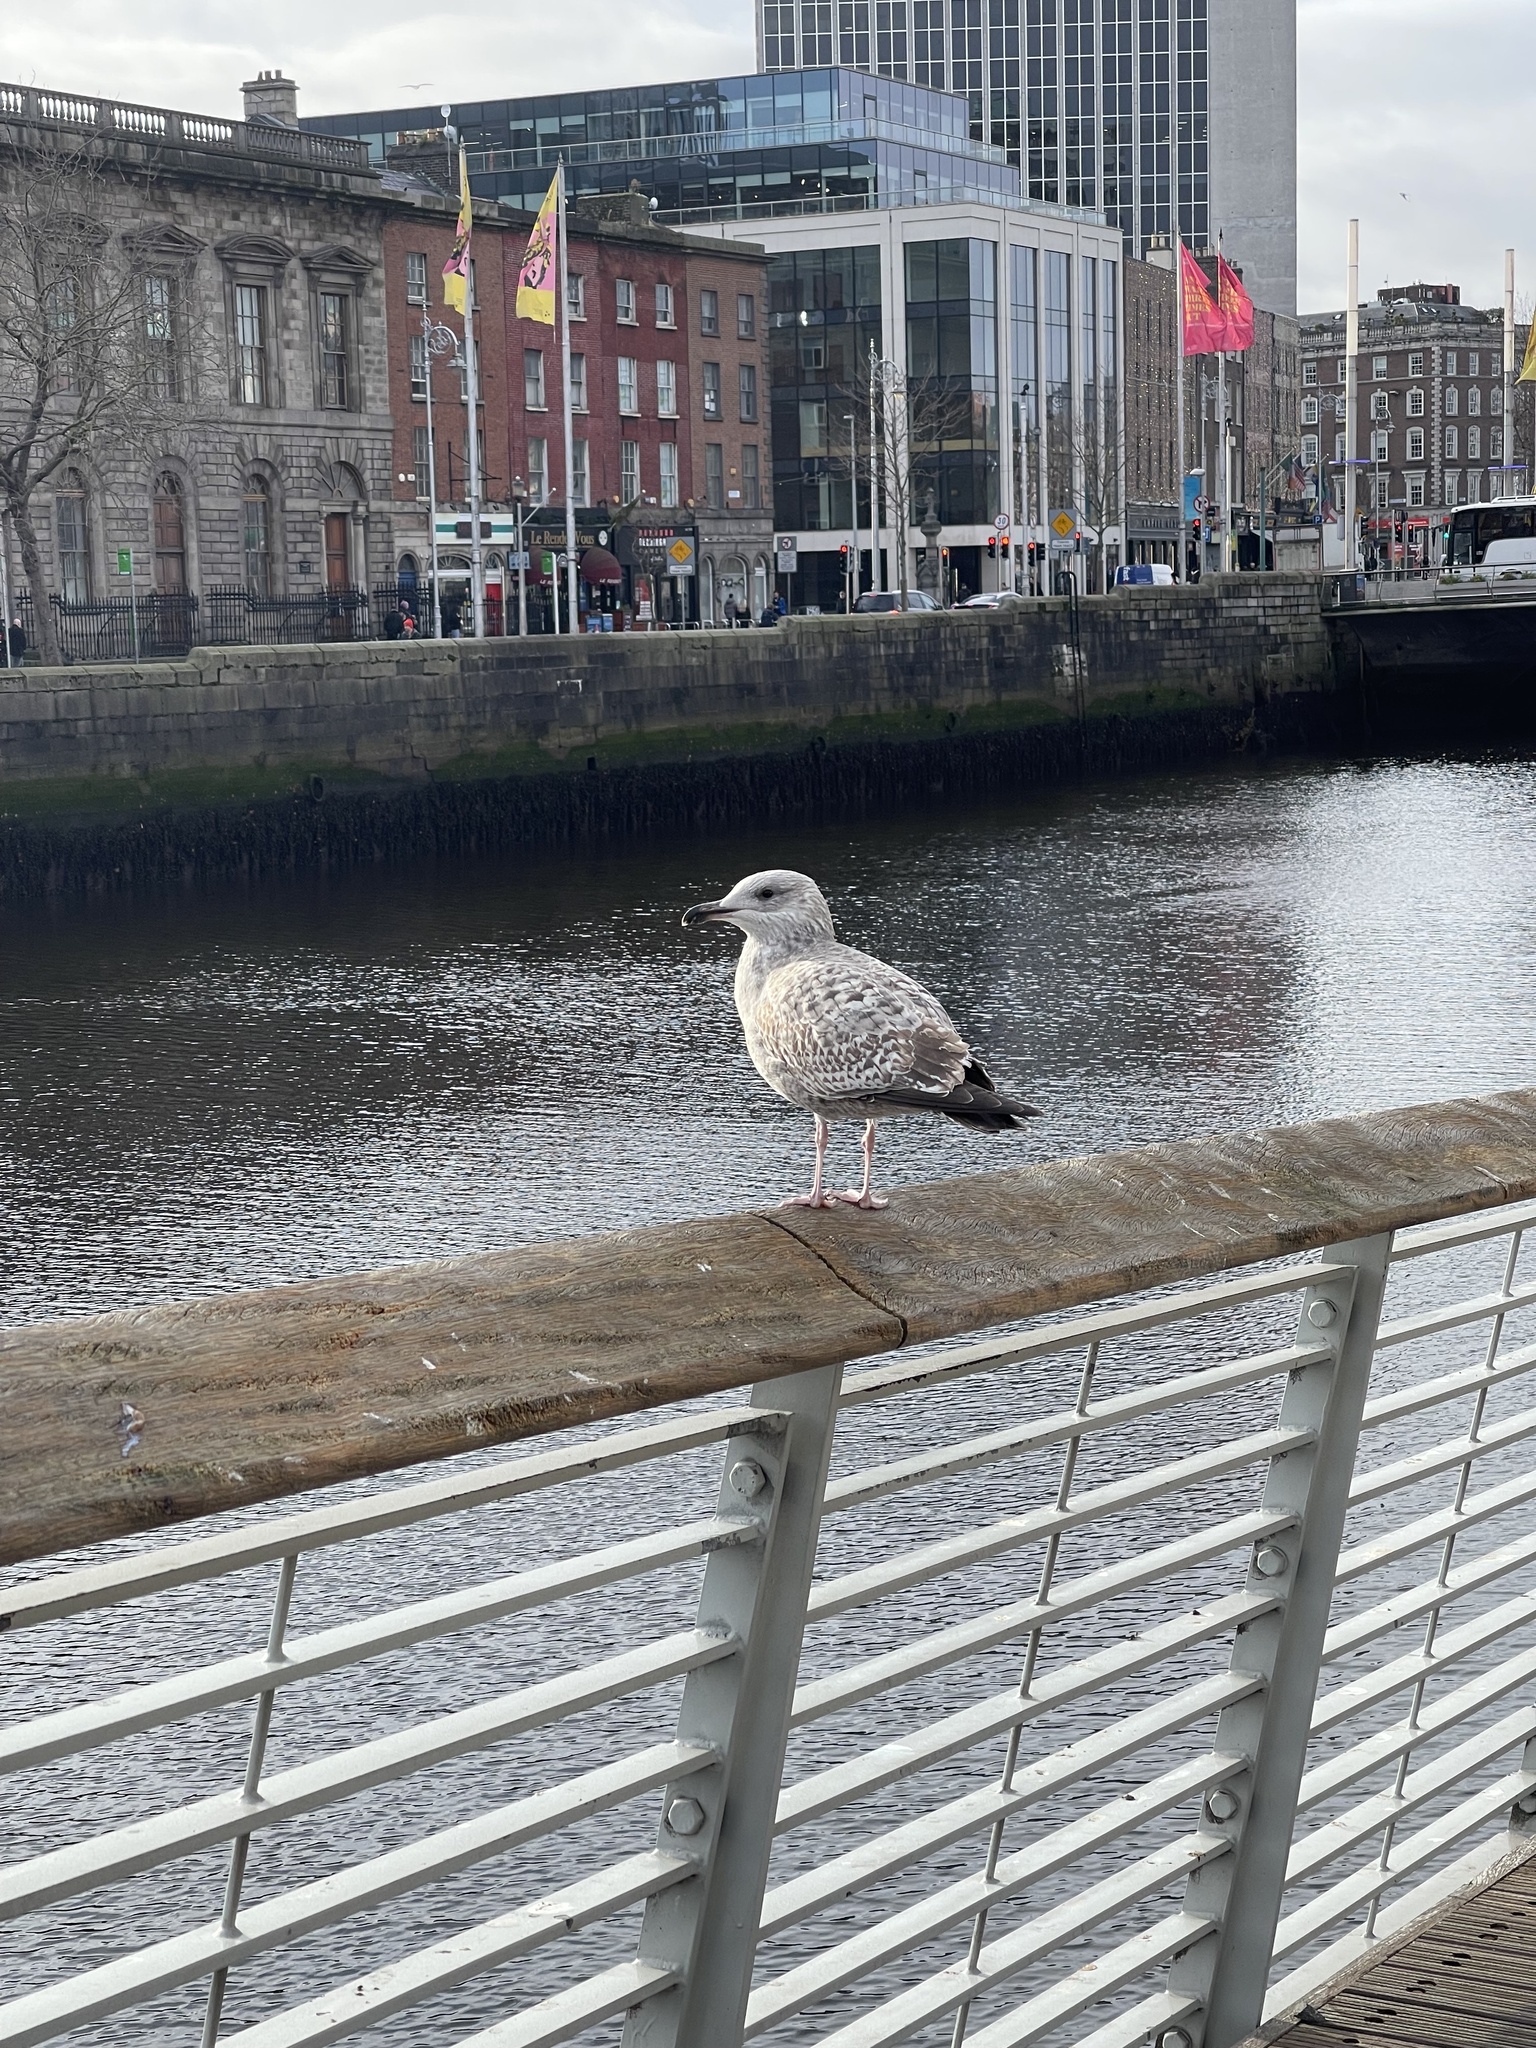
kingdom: Animalia
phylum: Chordata
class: Aves
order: Charadriiformes
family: Laridae
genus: Larus
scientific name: Larus argentatus
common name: Herring gull
